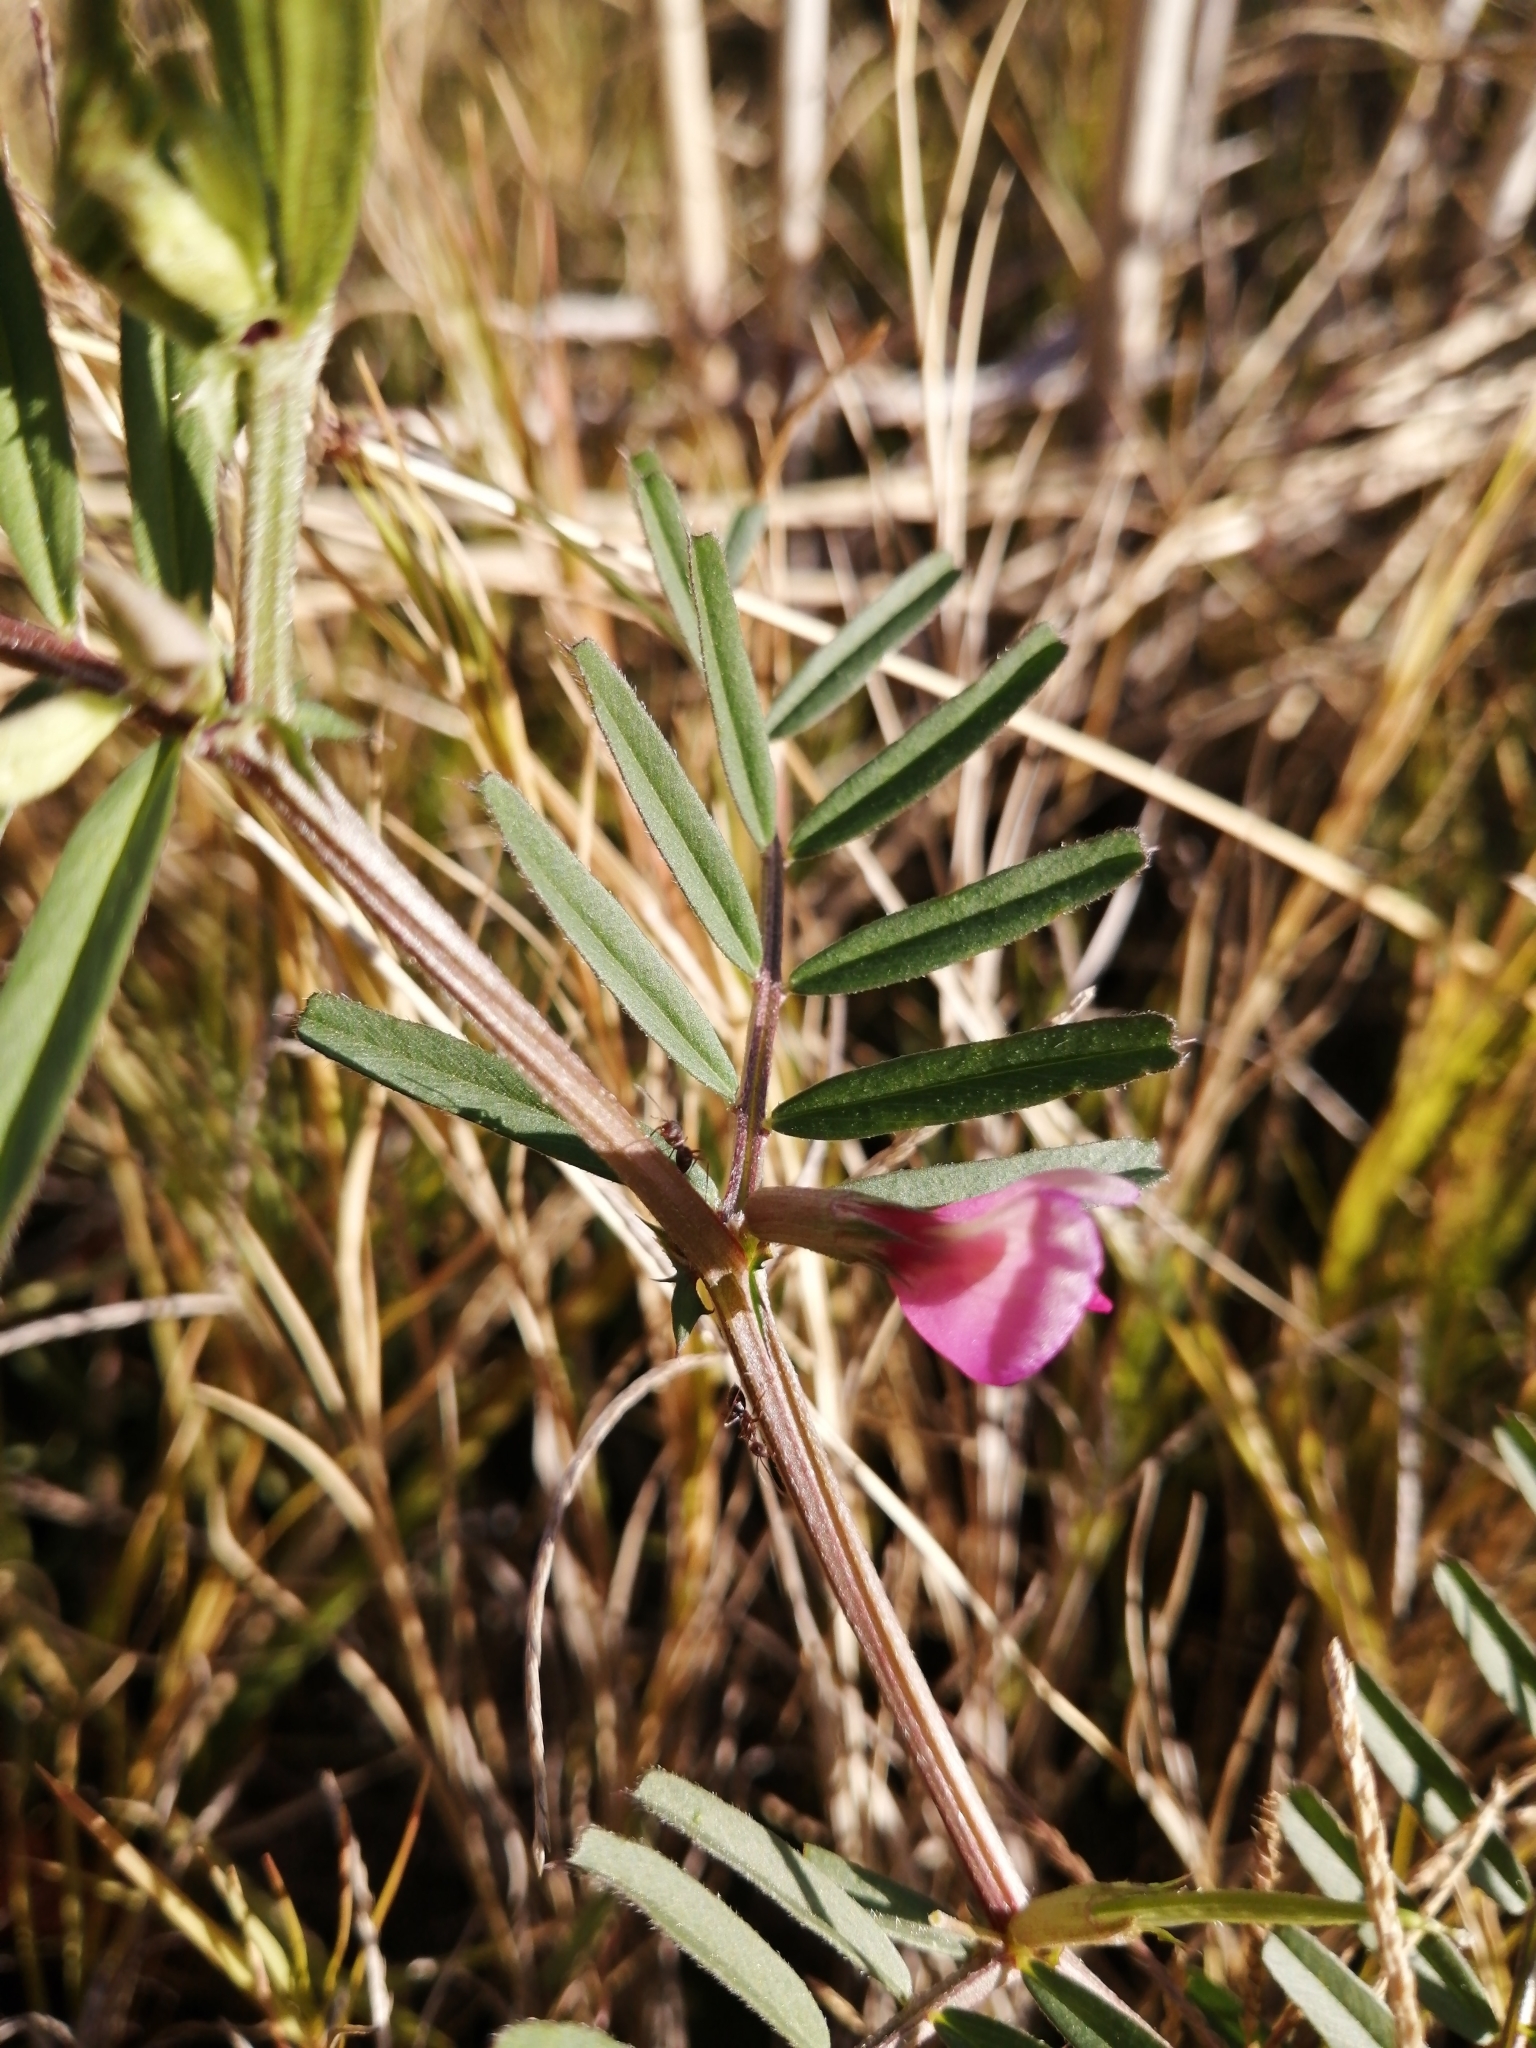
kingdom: Plantae
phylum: Tracheophyta
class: Magnoliopsida
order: Fabales
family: Fabaceae
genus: Tephrosia
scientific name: Tephrosia capensis
